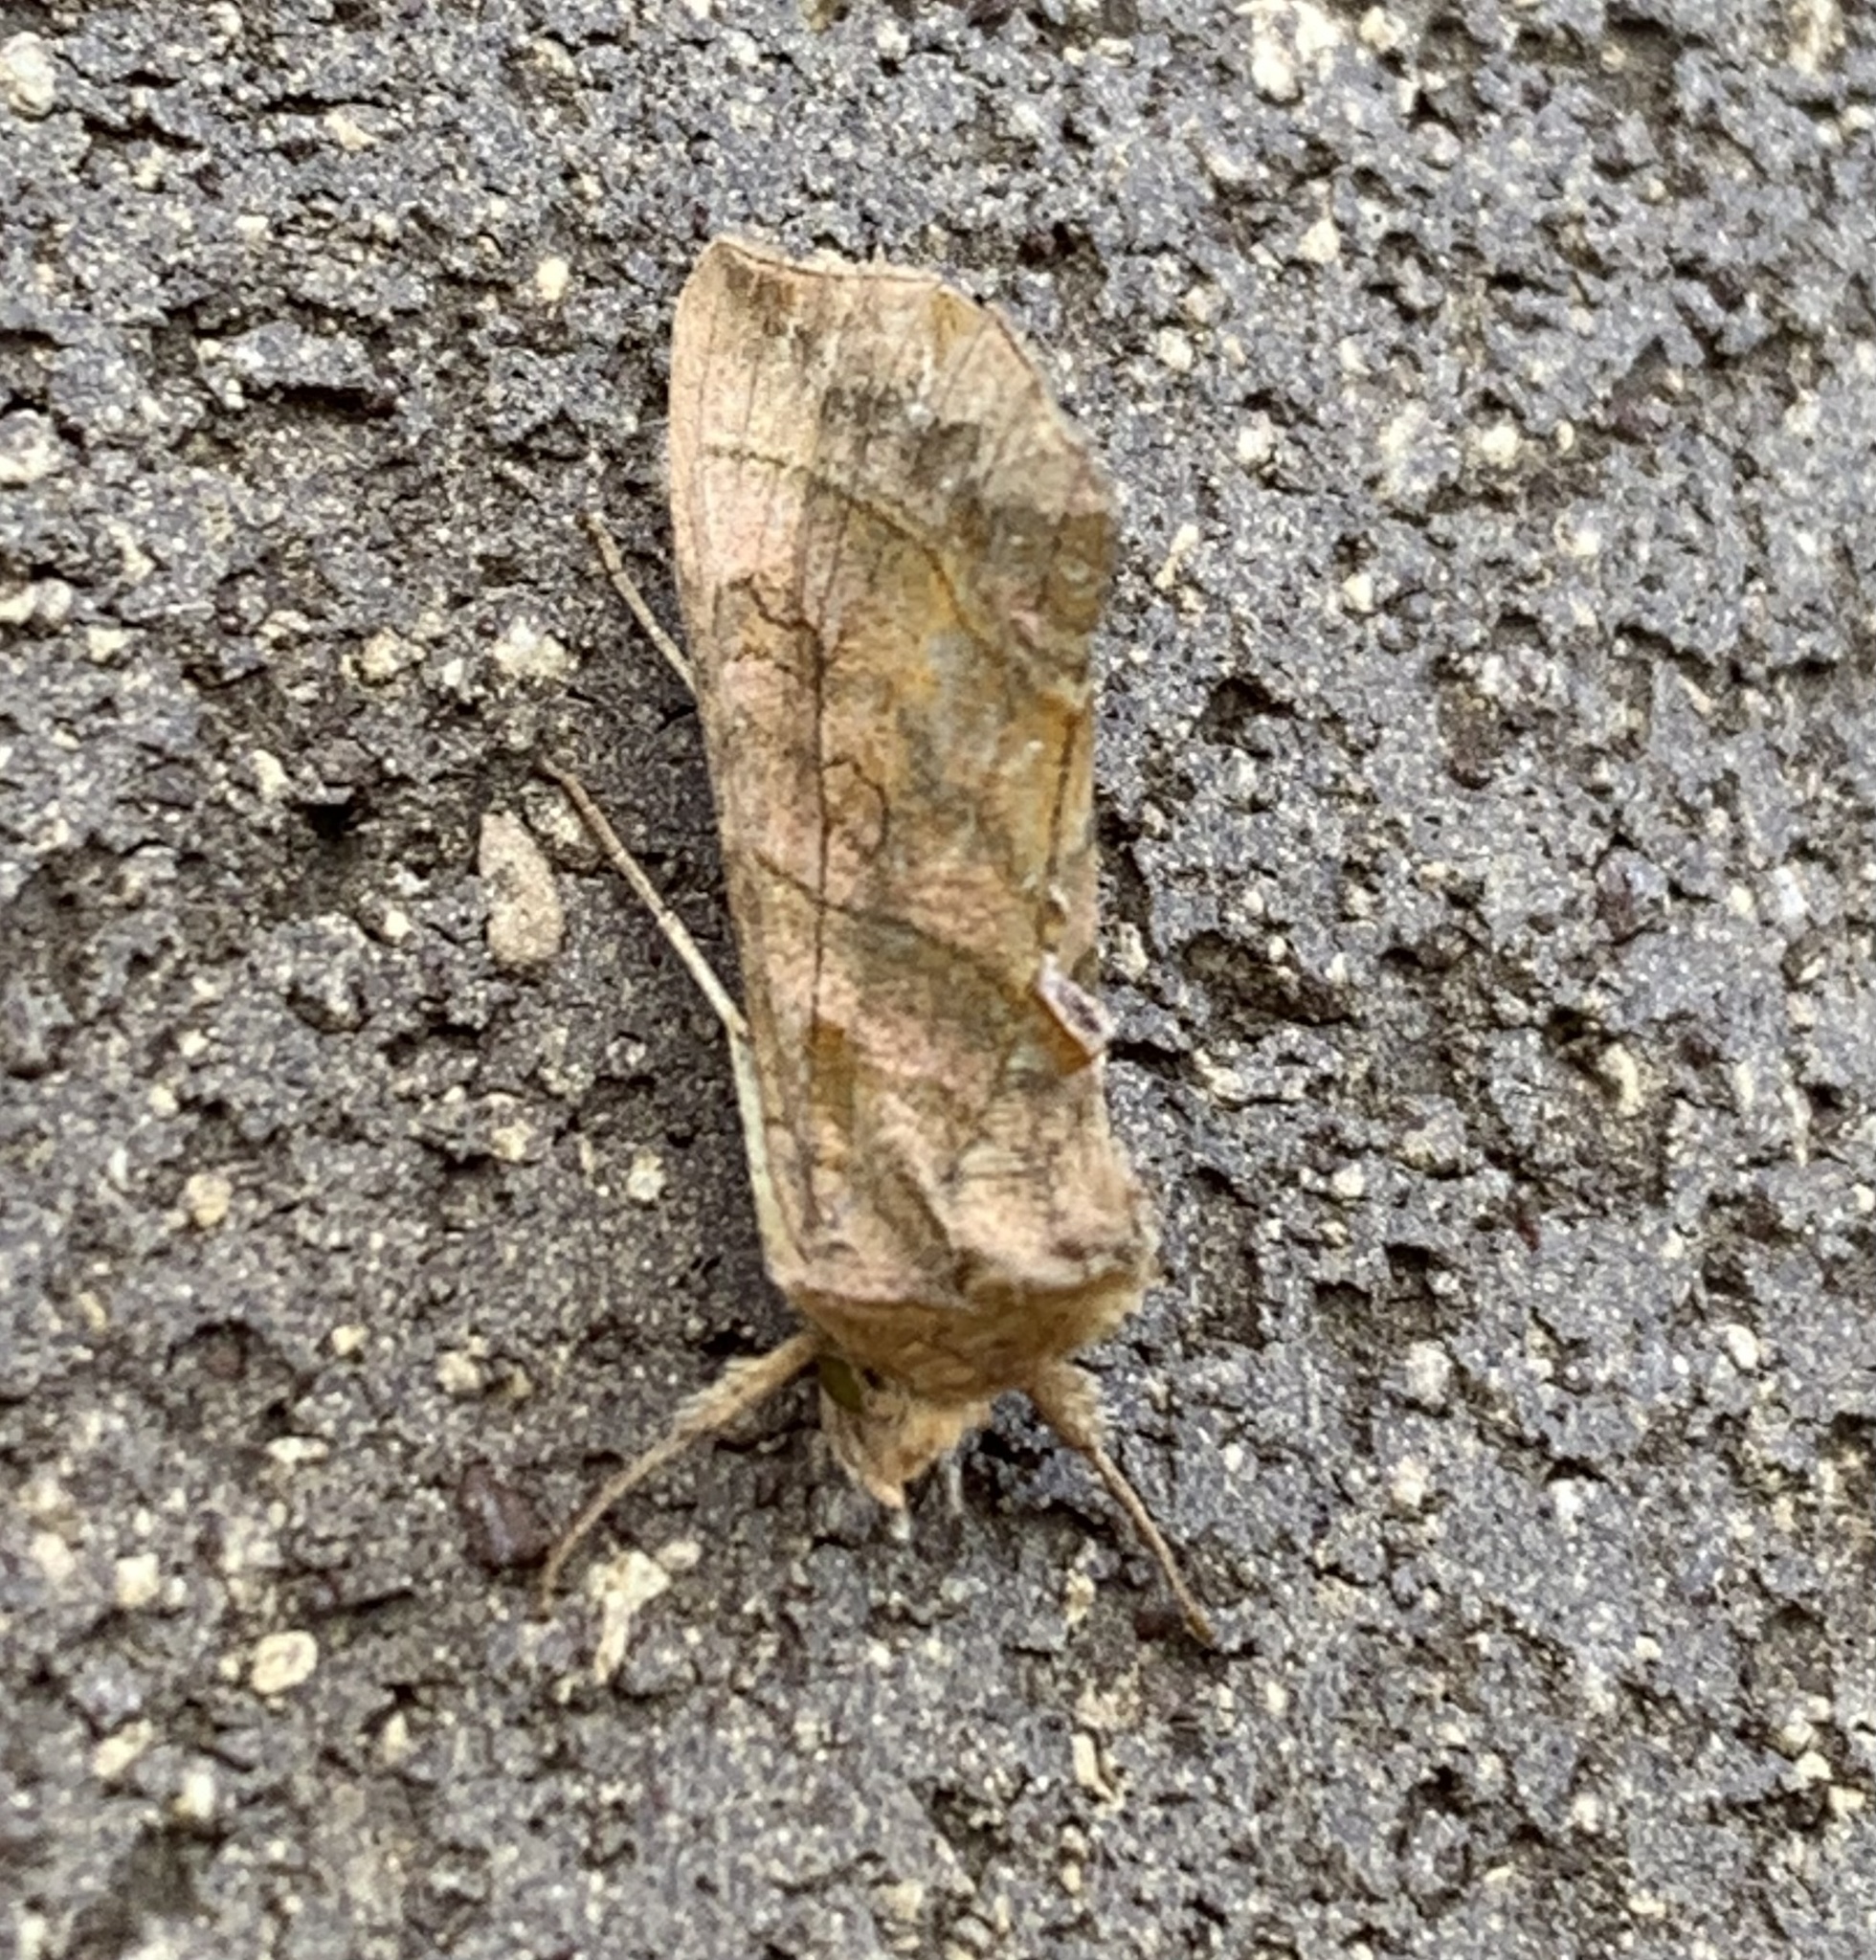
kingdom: Animalia
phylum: Arthropoda
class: Insecta
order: Lepidoptera
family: Noctuidae
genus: Diachrysia
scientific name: Diachrysia aereoides
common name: Dark-spotted looper moth
